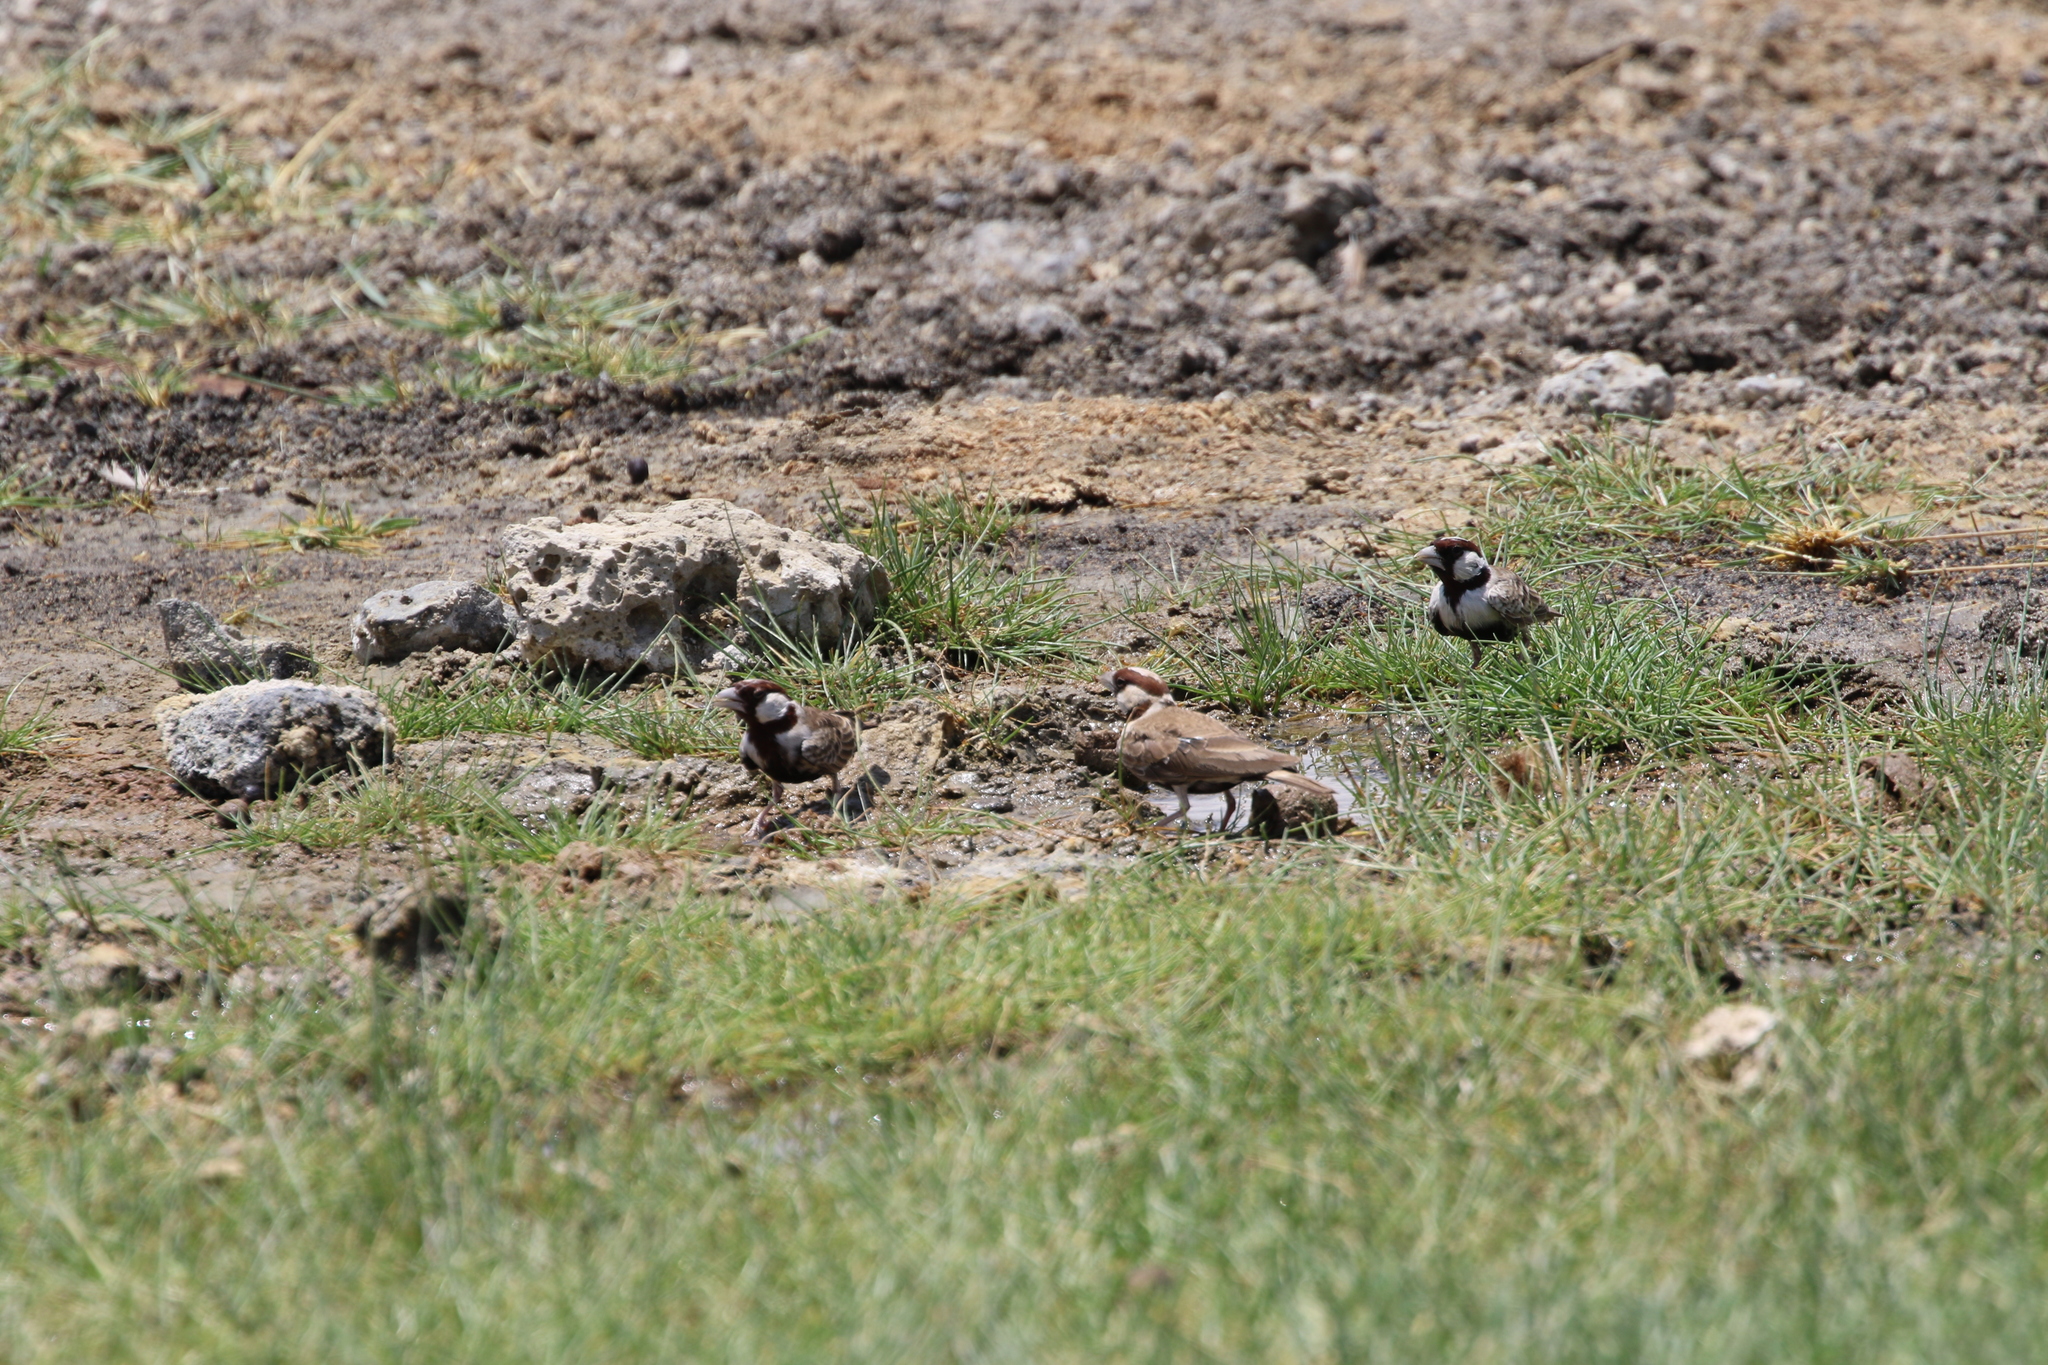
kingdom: Animalia
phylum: Chordata
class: Aves
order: Passeriformes
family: Alaudidae
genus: Eremopterix
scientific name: Eremopterix signatus
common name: Chestnut-headed sparrow-lark
